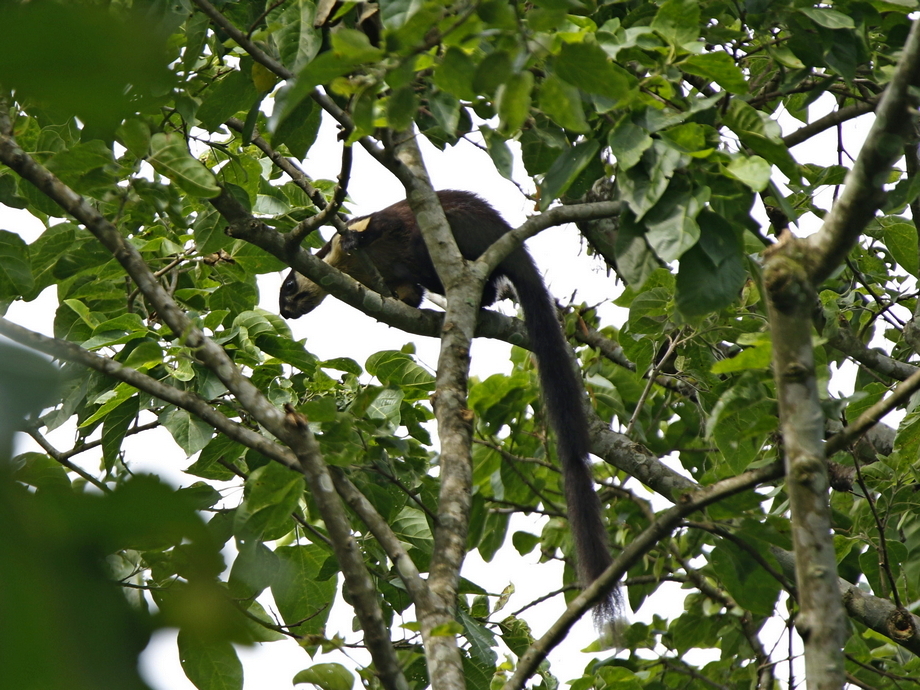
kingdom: Animalia
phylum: Chordata
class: Mammalia
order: Rodentia
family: Sciuridae
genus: Ratufa
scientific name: Ratufa bicolor
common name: Black giant squirrel
